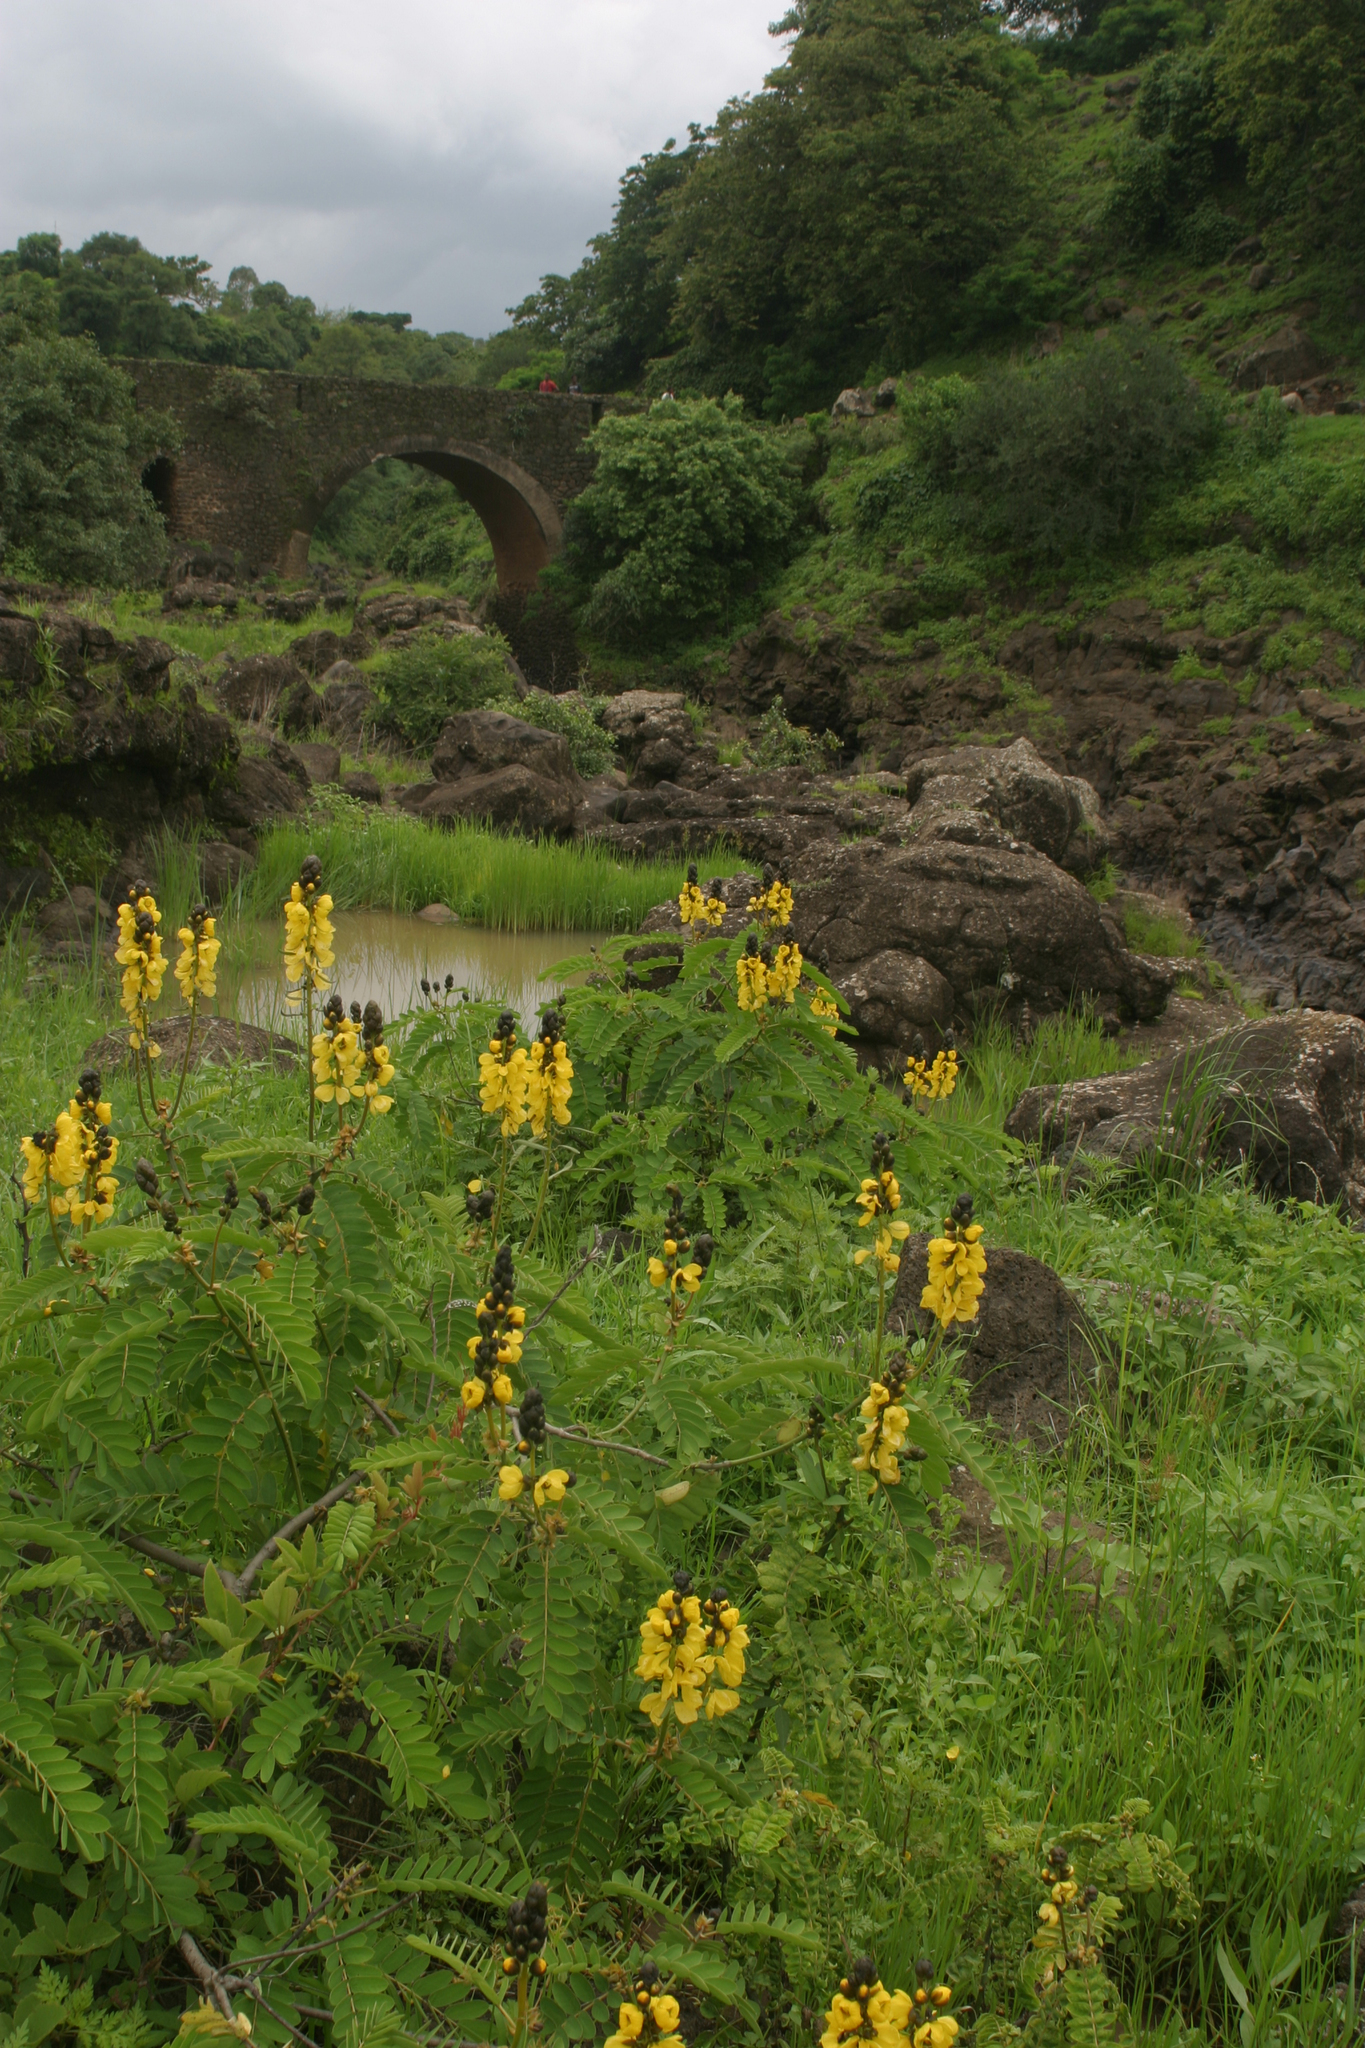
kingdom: Plantae
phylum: Tracheophyta
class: Magnoliopsida
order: Fabales
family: Fabaceae
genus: Senna
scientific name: Senna didymobotrya
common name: African senna
